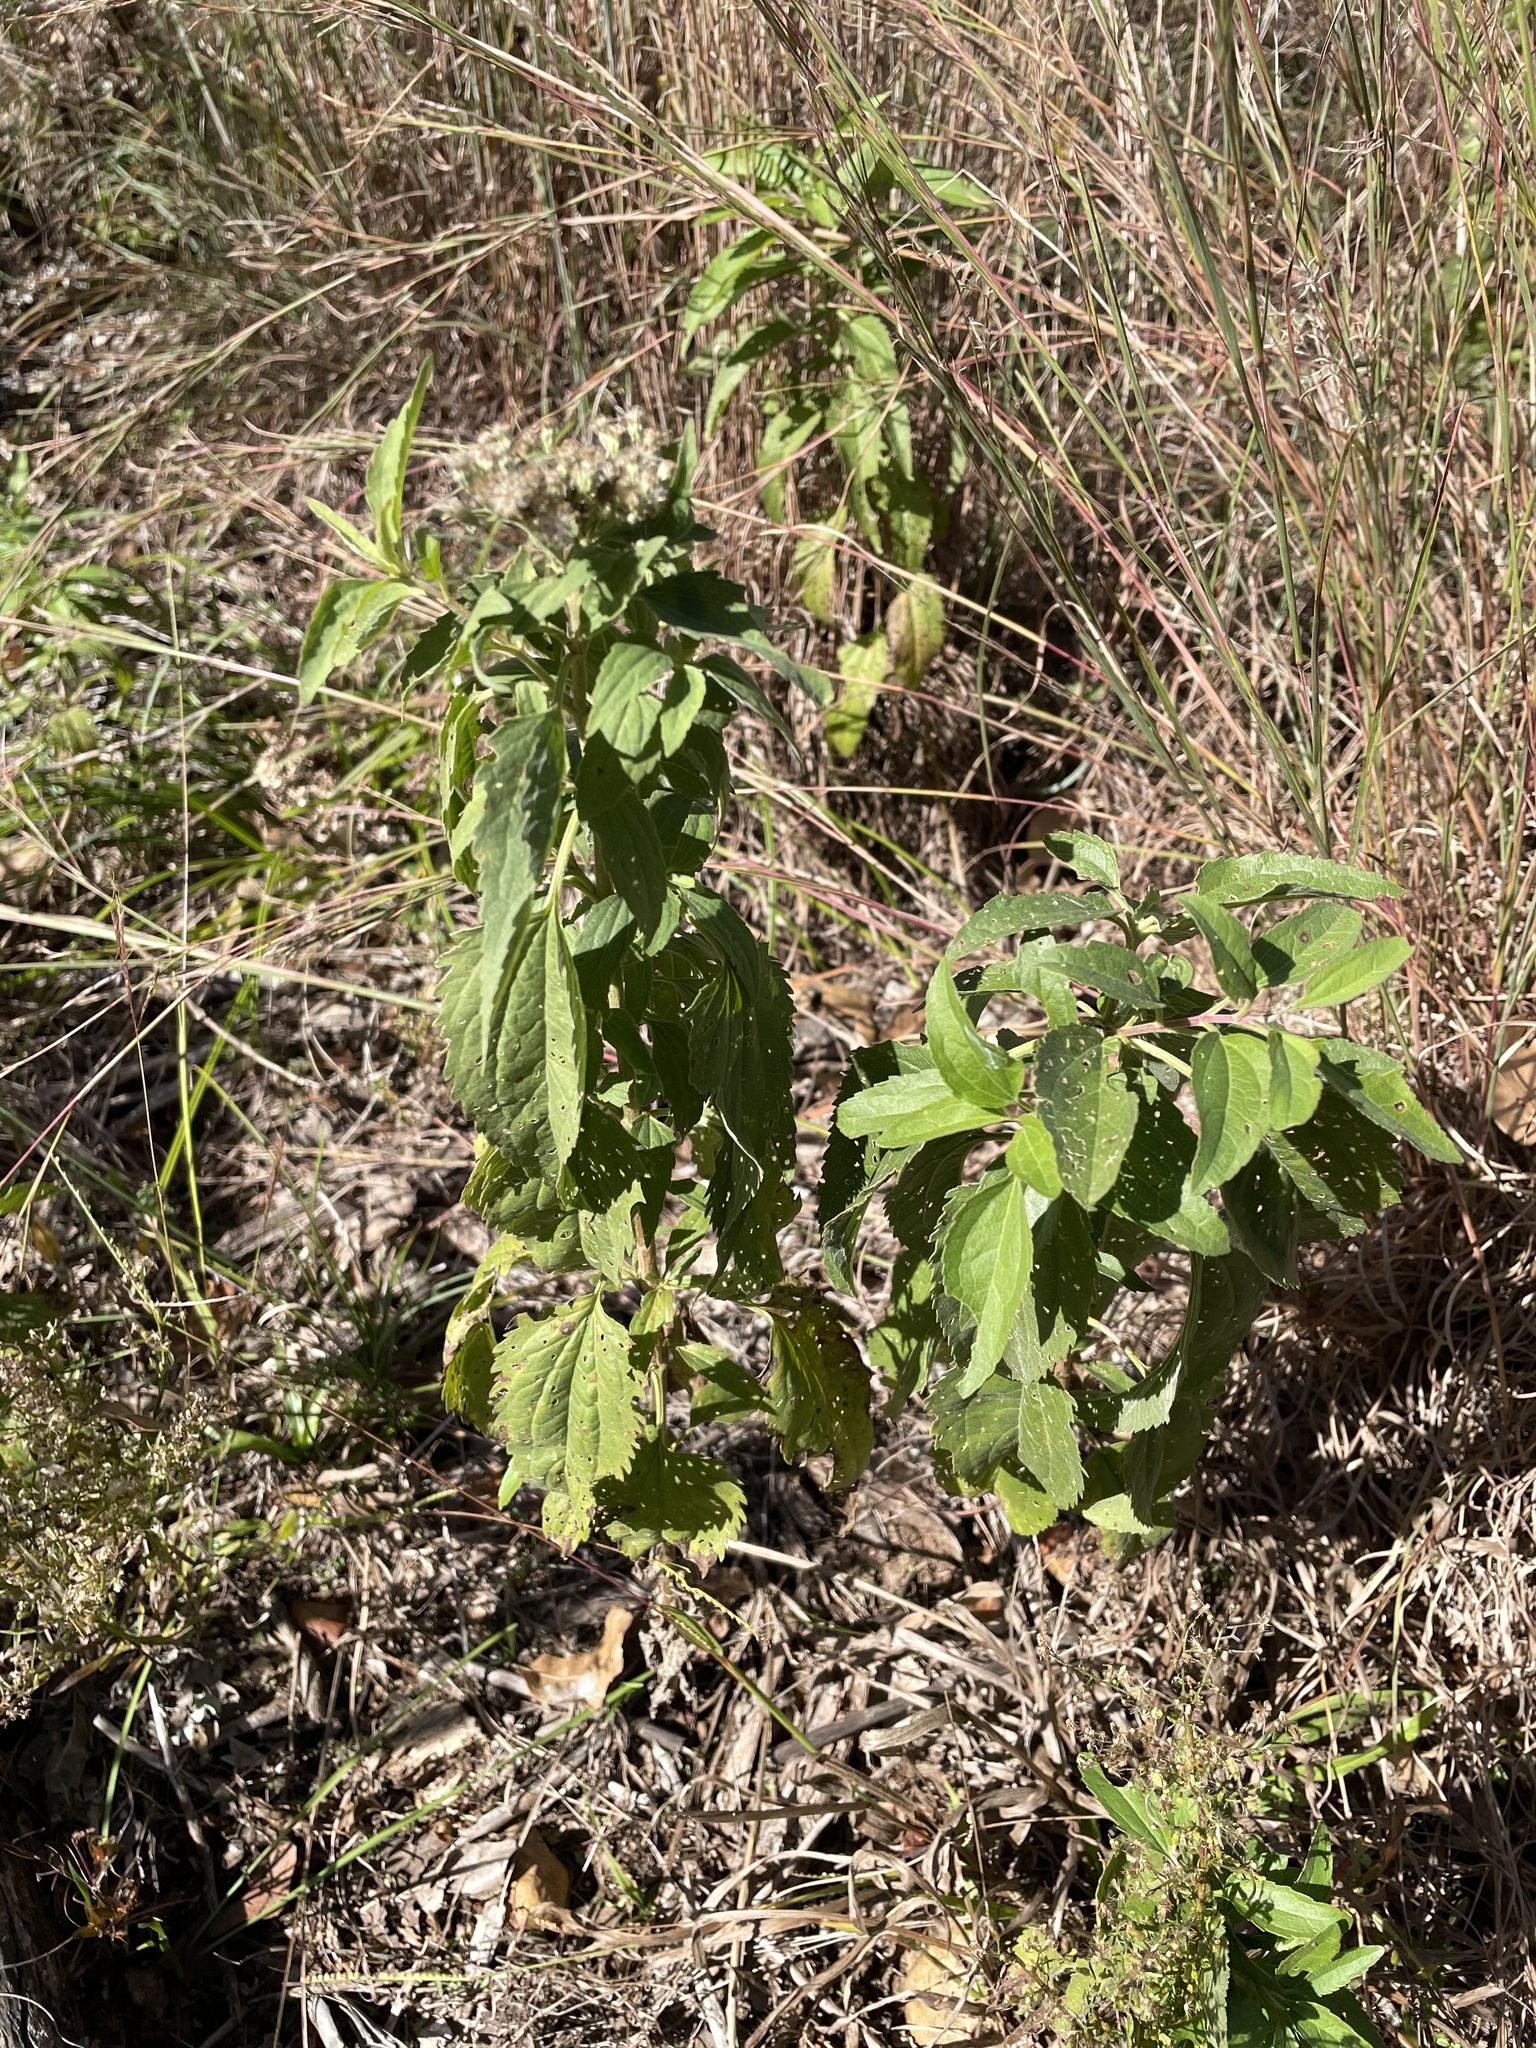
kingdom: Plantae
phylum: Tracheophyta
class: Magnoliopsida
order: Asterales
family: Asteraceae
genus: Eupatorium
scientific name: Eupatorium serotinum
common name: Late boneset
